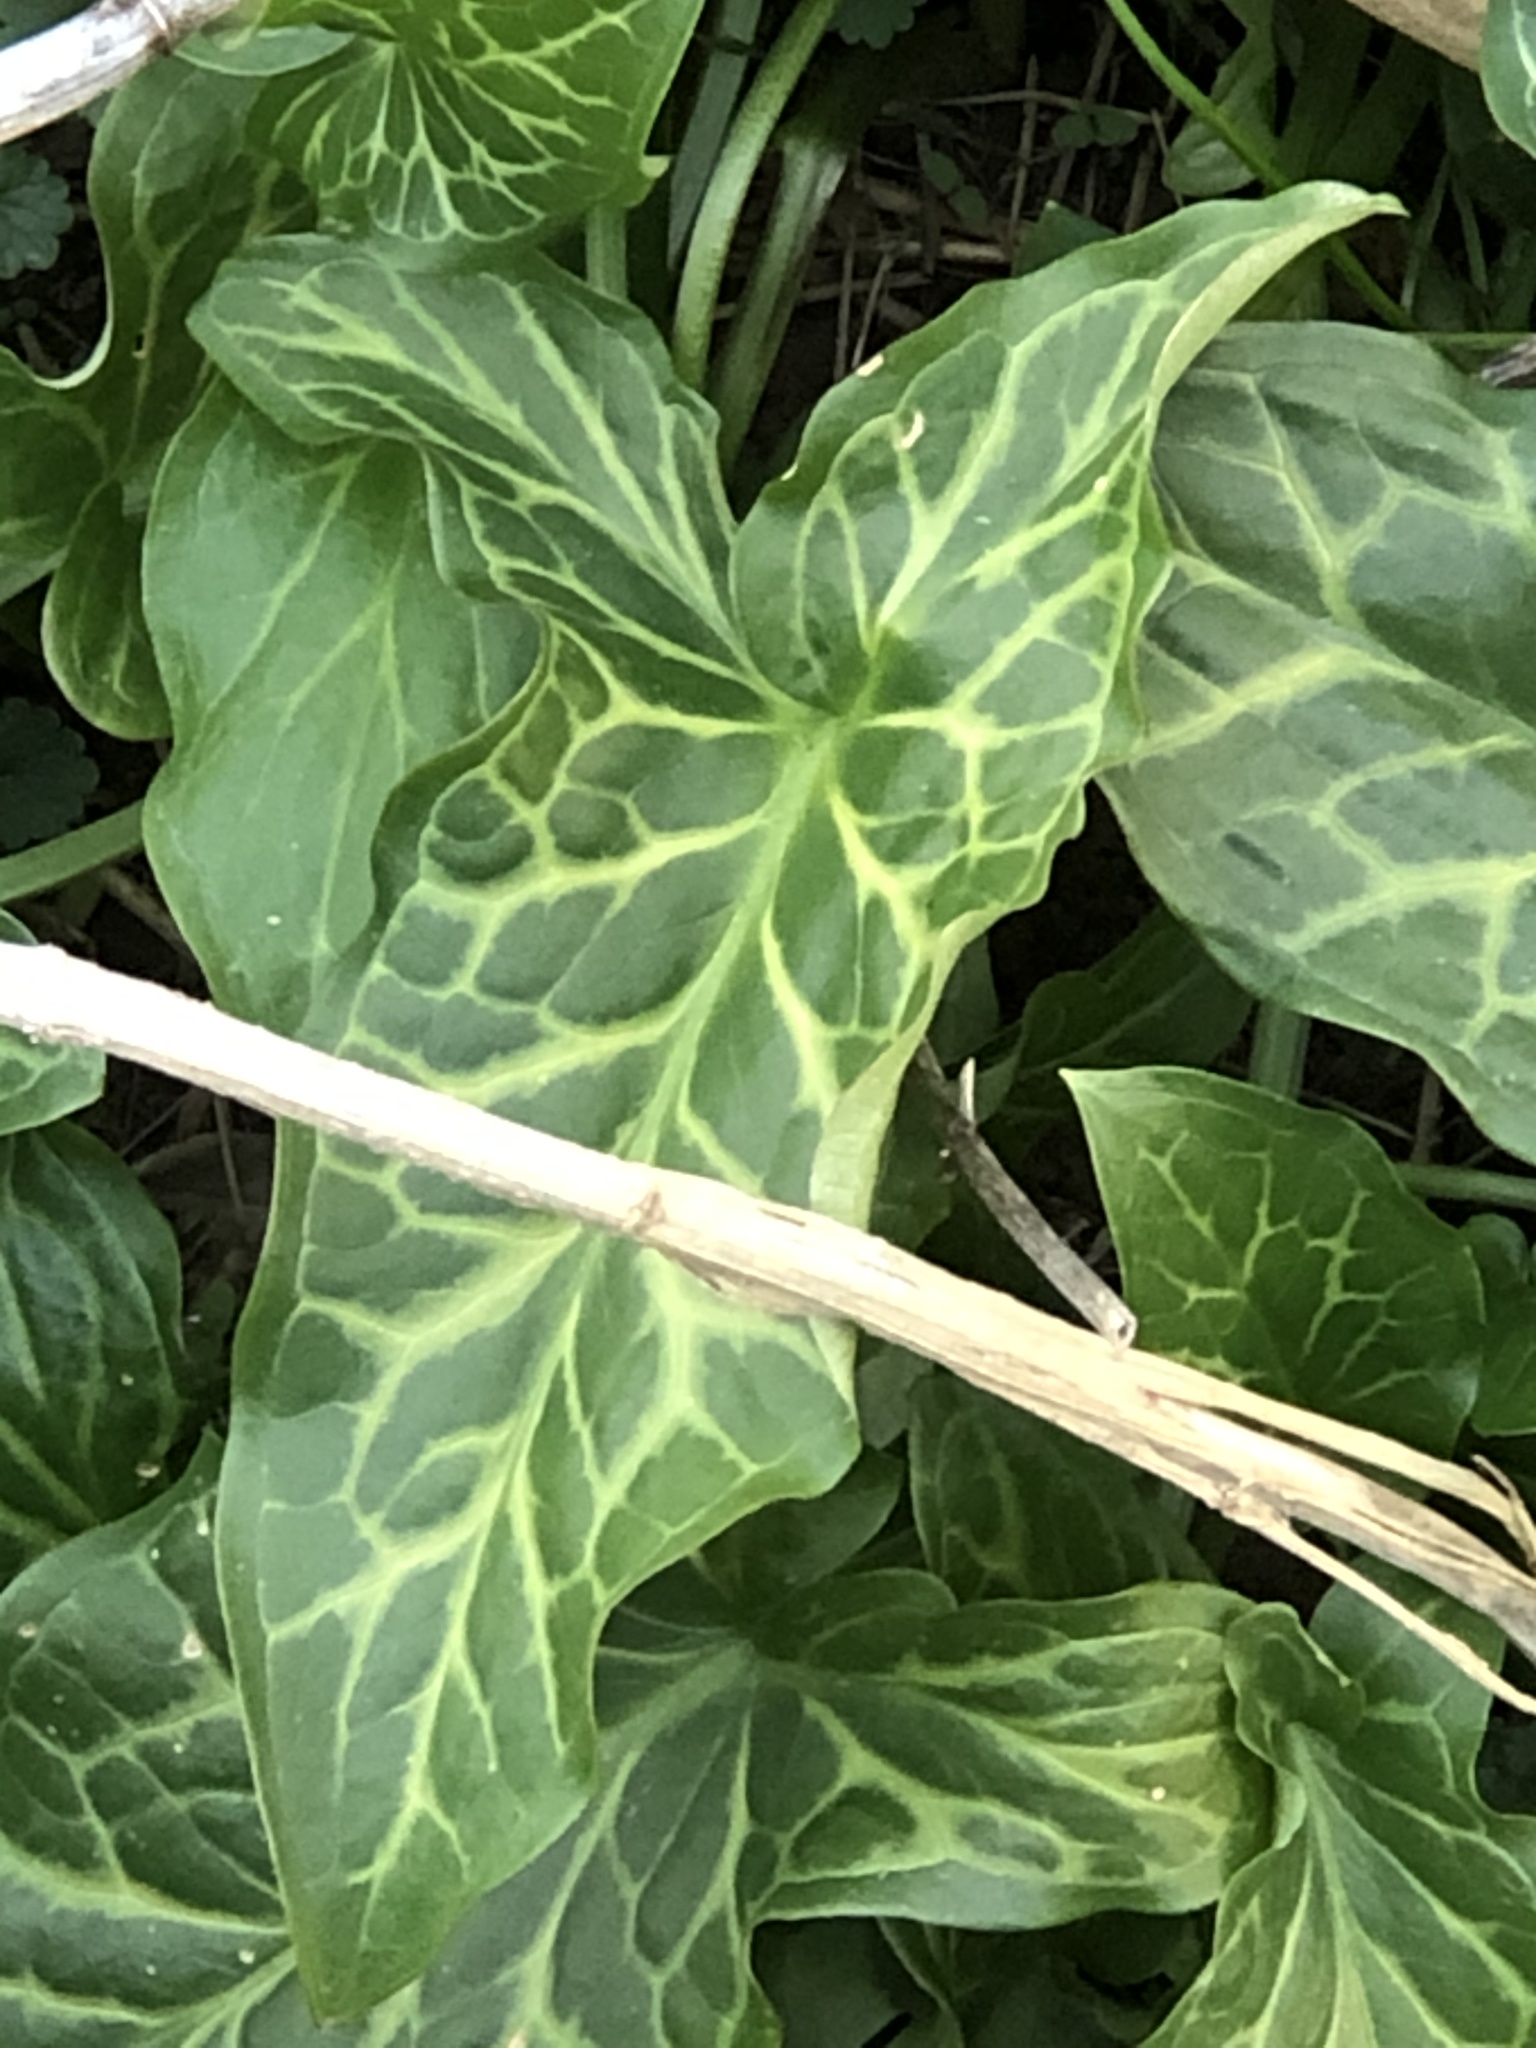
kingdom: Plantae
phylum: Tracheophyta
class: Liliopsida
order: Alismatales
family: Araceae
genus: Arum
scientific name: Arum italicum
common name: Italian lords-and-ladies
